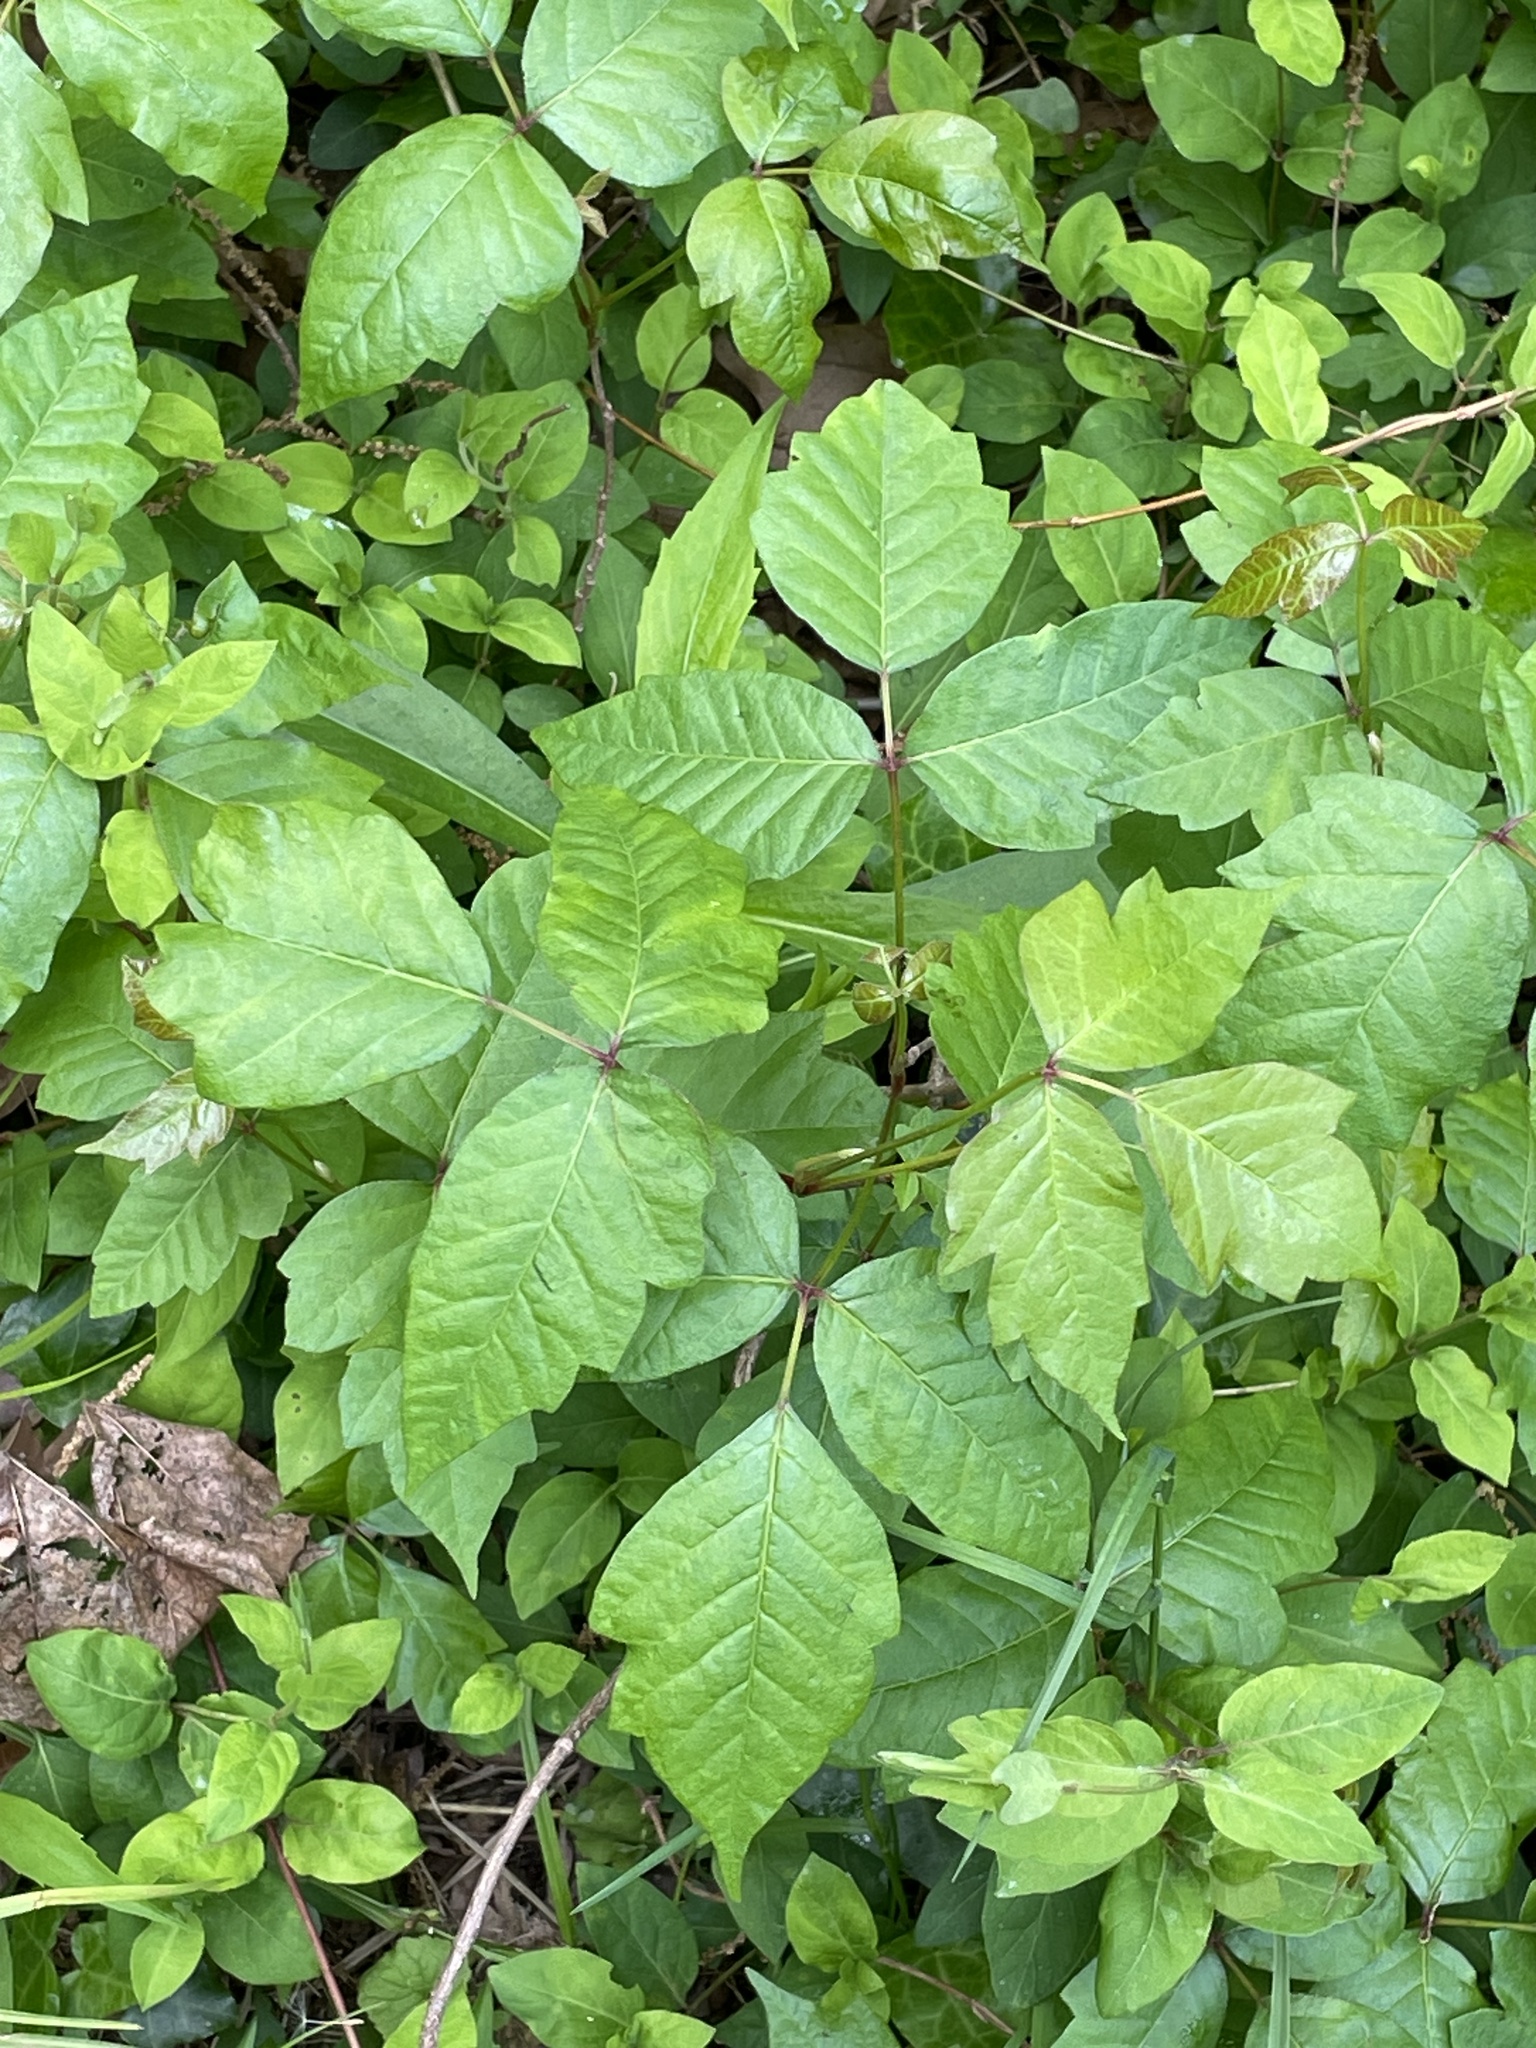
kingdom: Plantae
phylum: Tracheophyta
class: Magnoliopsida
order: Sapindales
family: Anacardiaceae
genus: Toxicodendron
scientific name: Toxicodendron radicans
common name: Poison ivy
